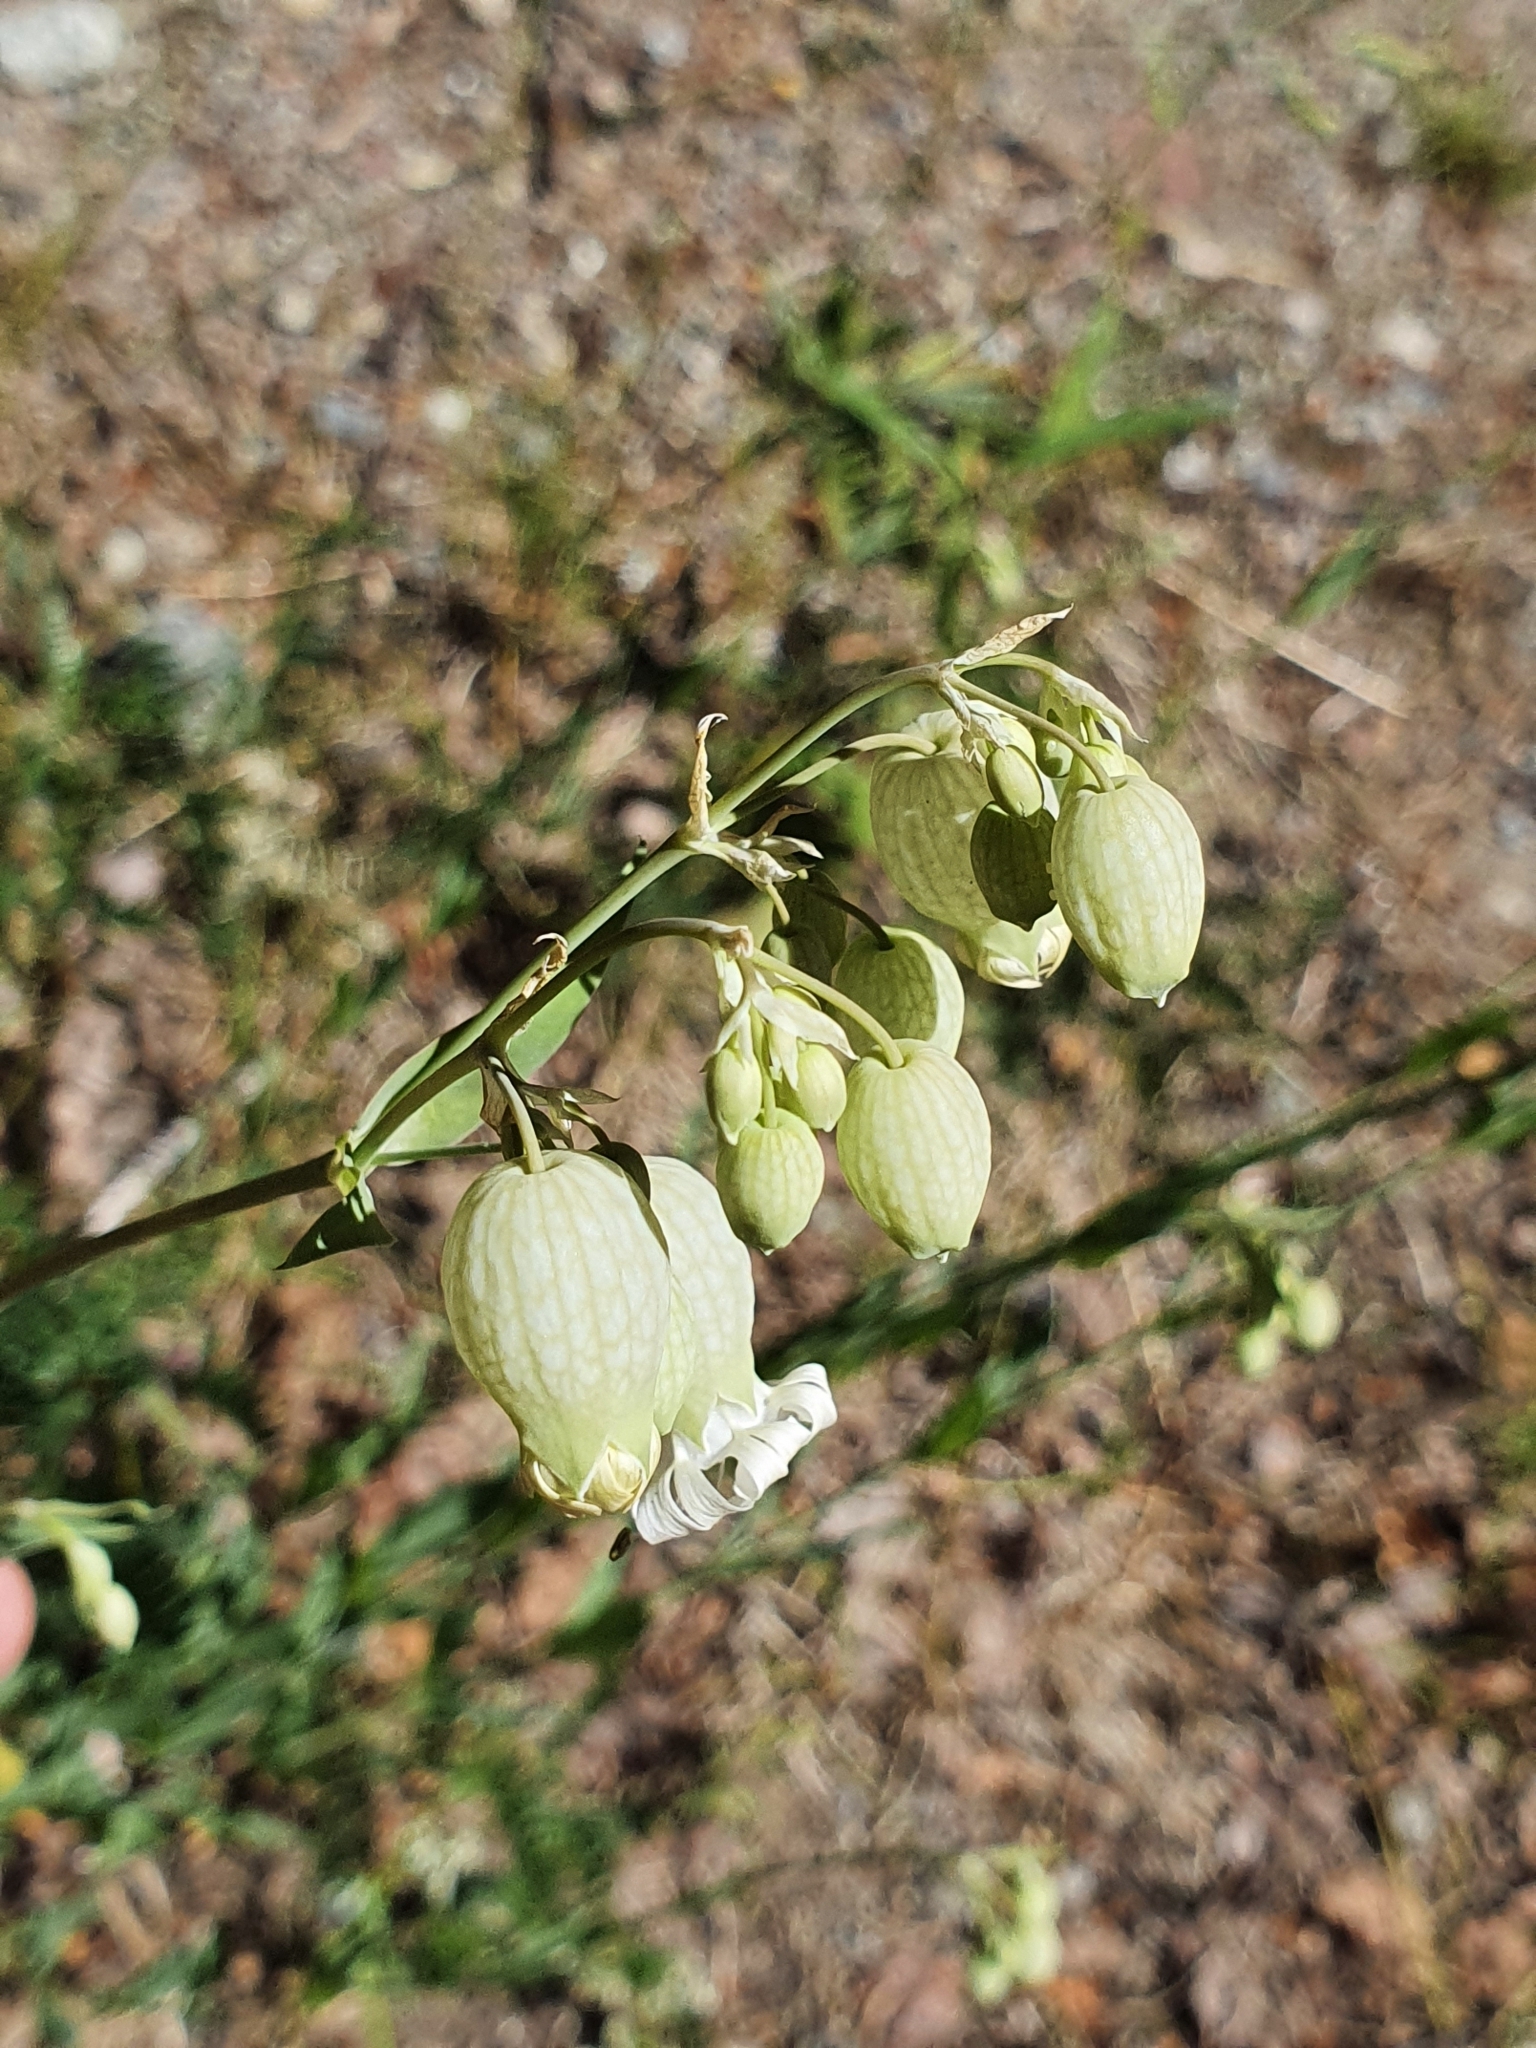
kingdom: Plantae
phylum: Tracheophyta
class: Magnoliopsida
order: Caryophyllales
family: Caryophyllaceae
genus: Silene
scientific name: Silene vulgaris
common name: Bladder campion
